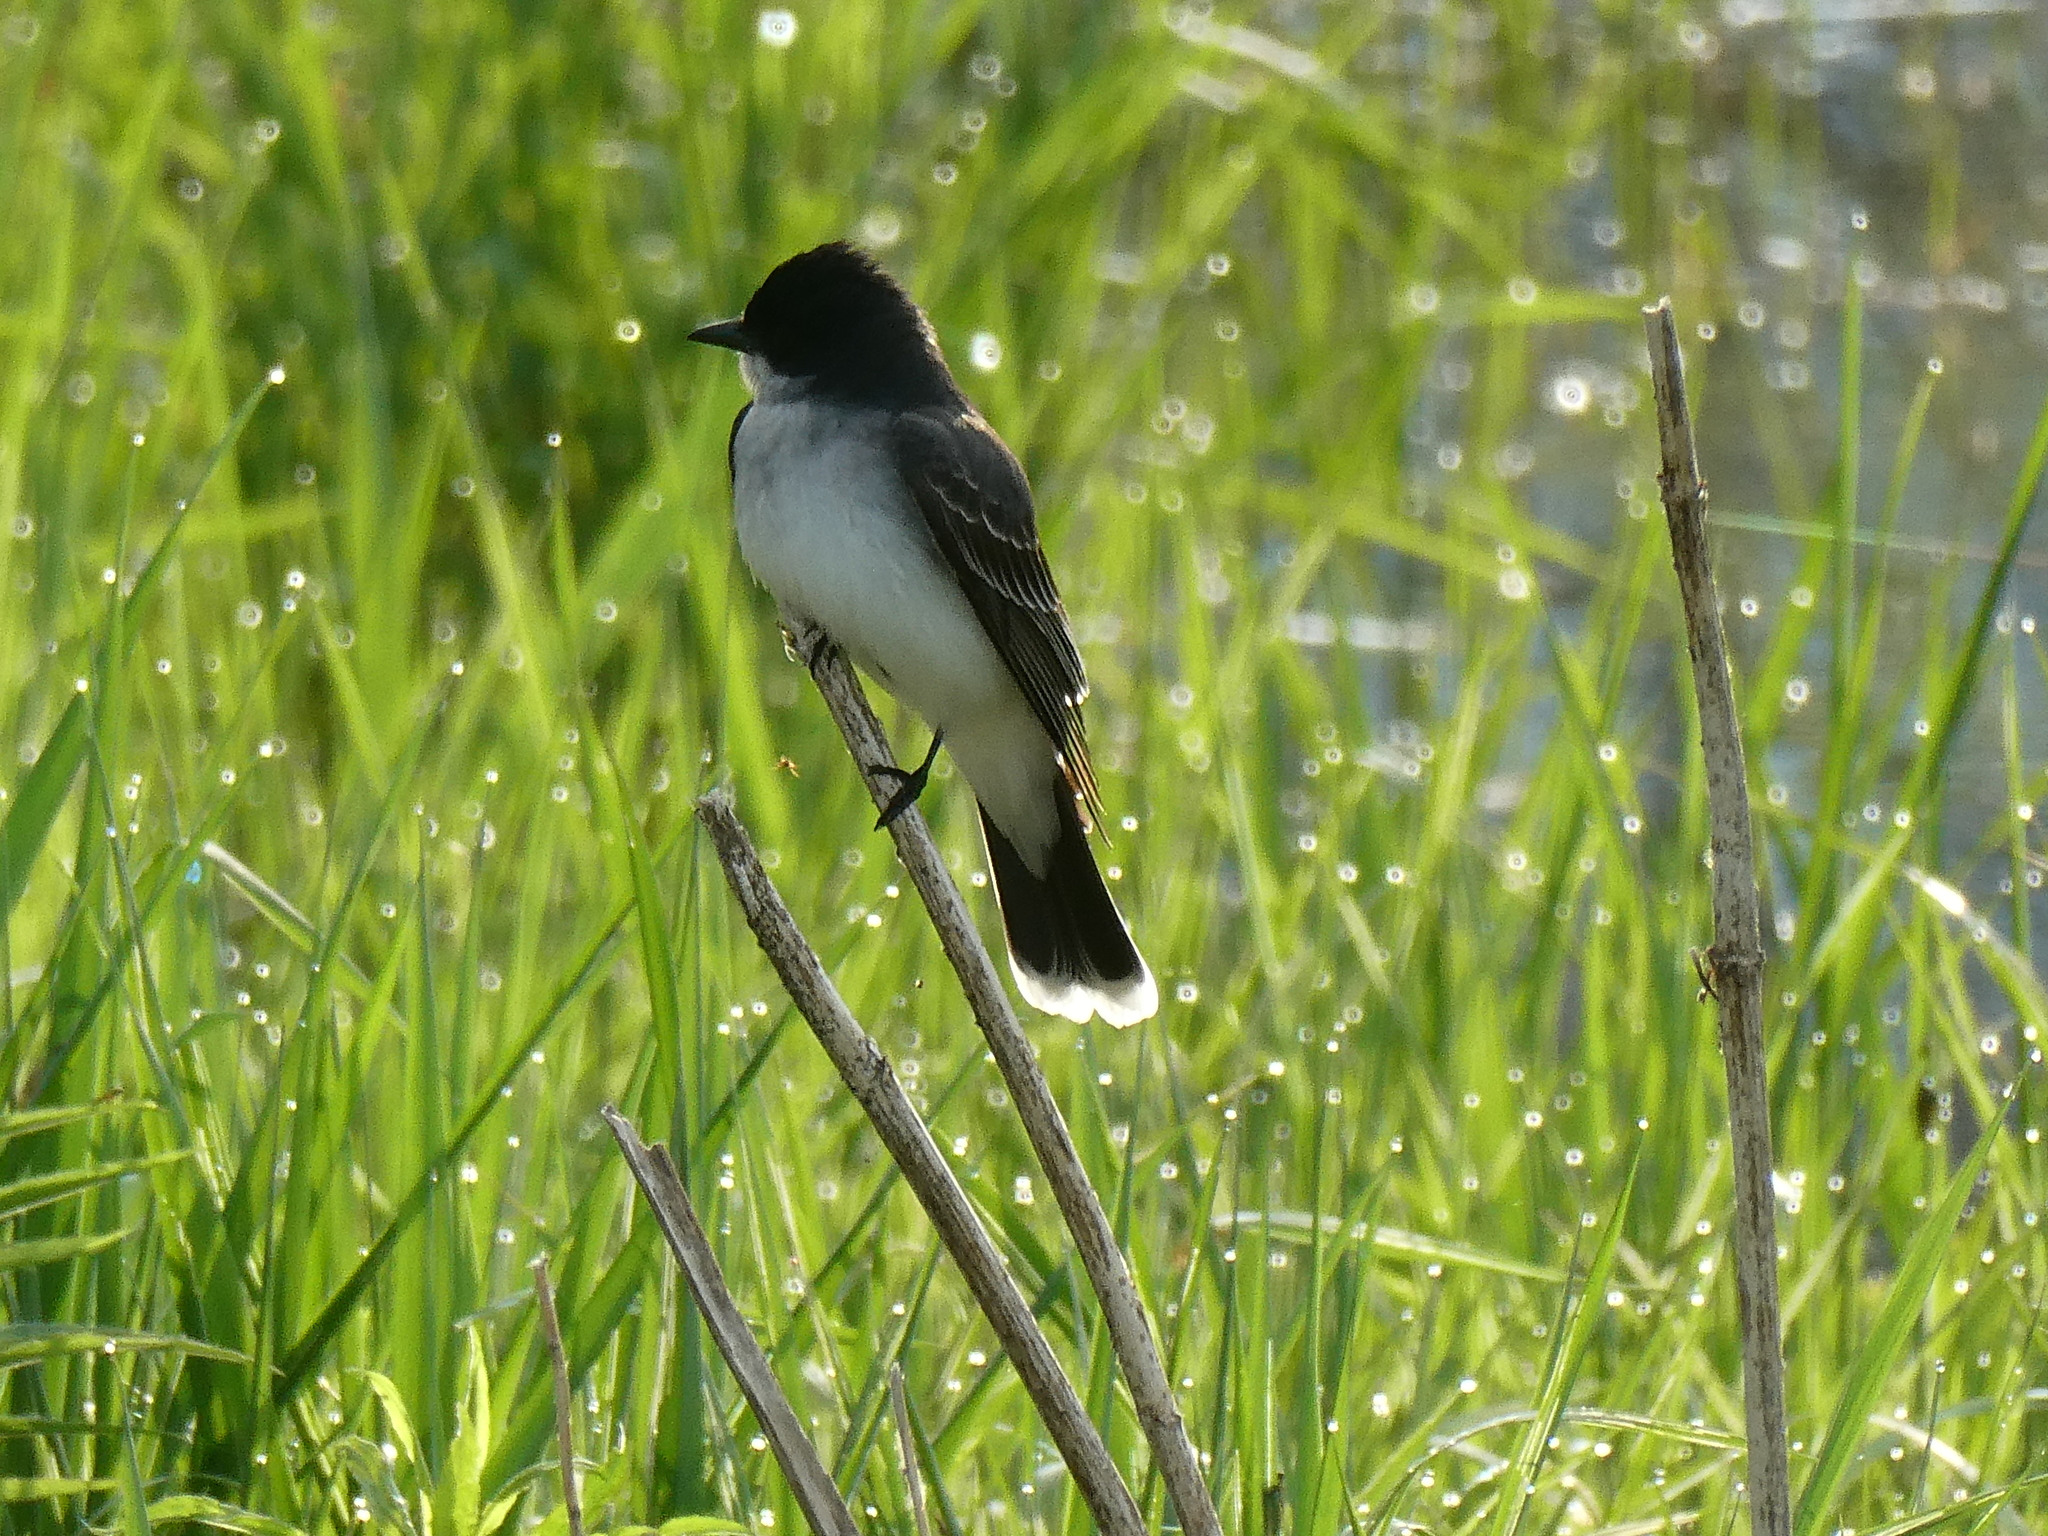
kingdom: Animalia
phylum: Chordata
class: Aves
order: Passeriformes
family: Tyrannidae
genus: Tyrannus
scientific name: Tyrannus tyrannus
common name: Eastern kingbird
